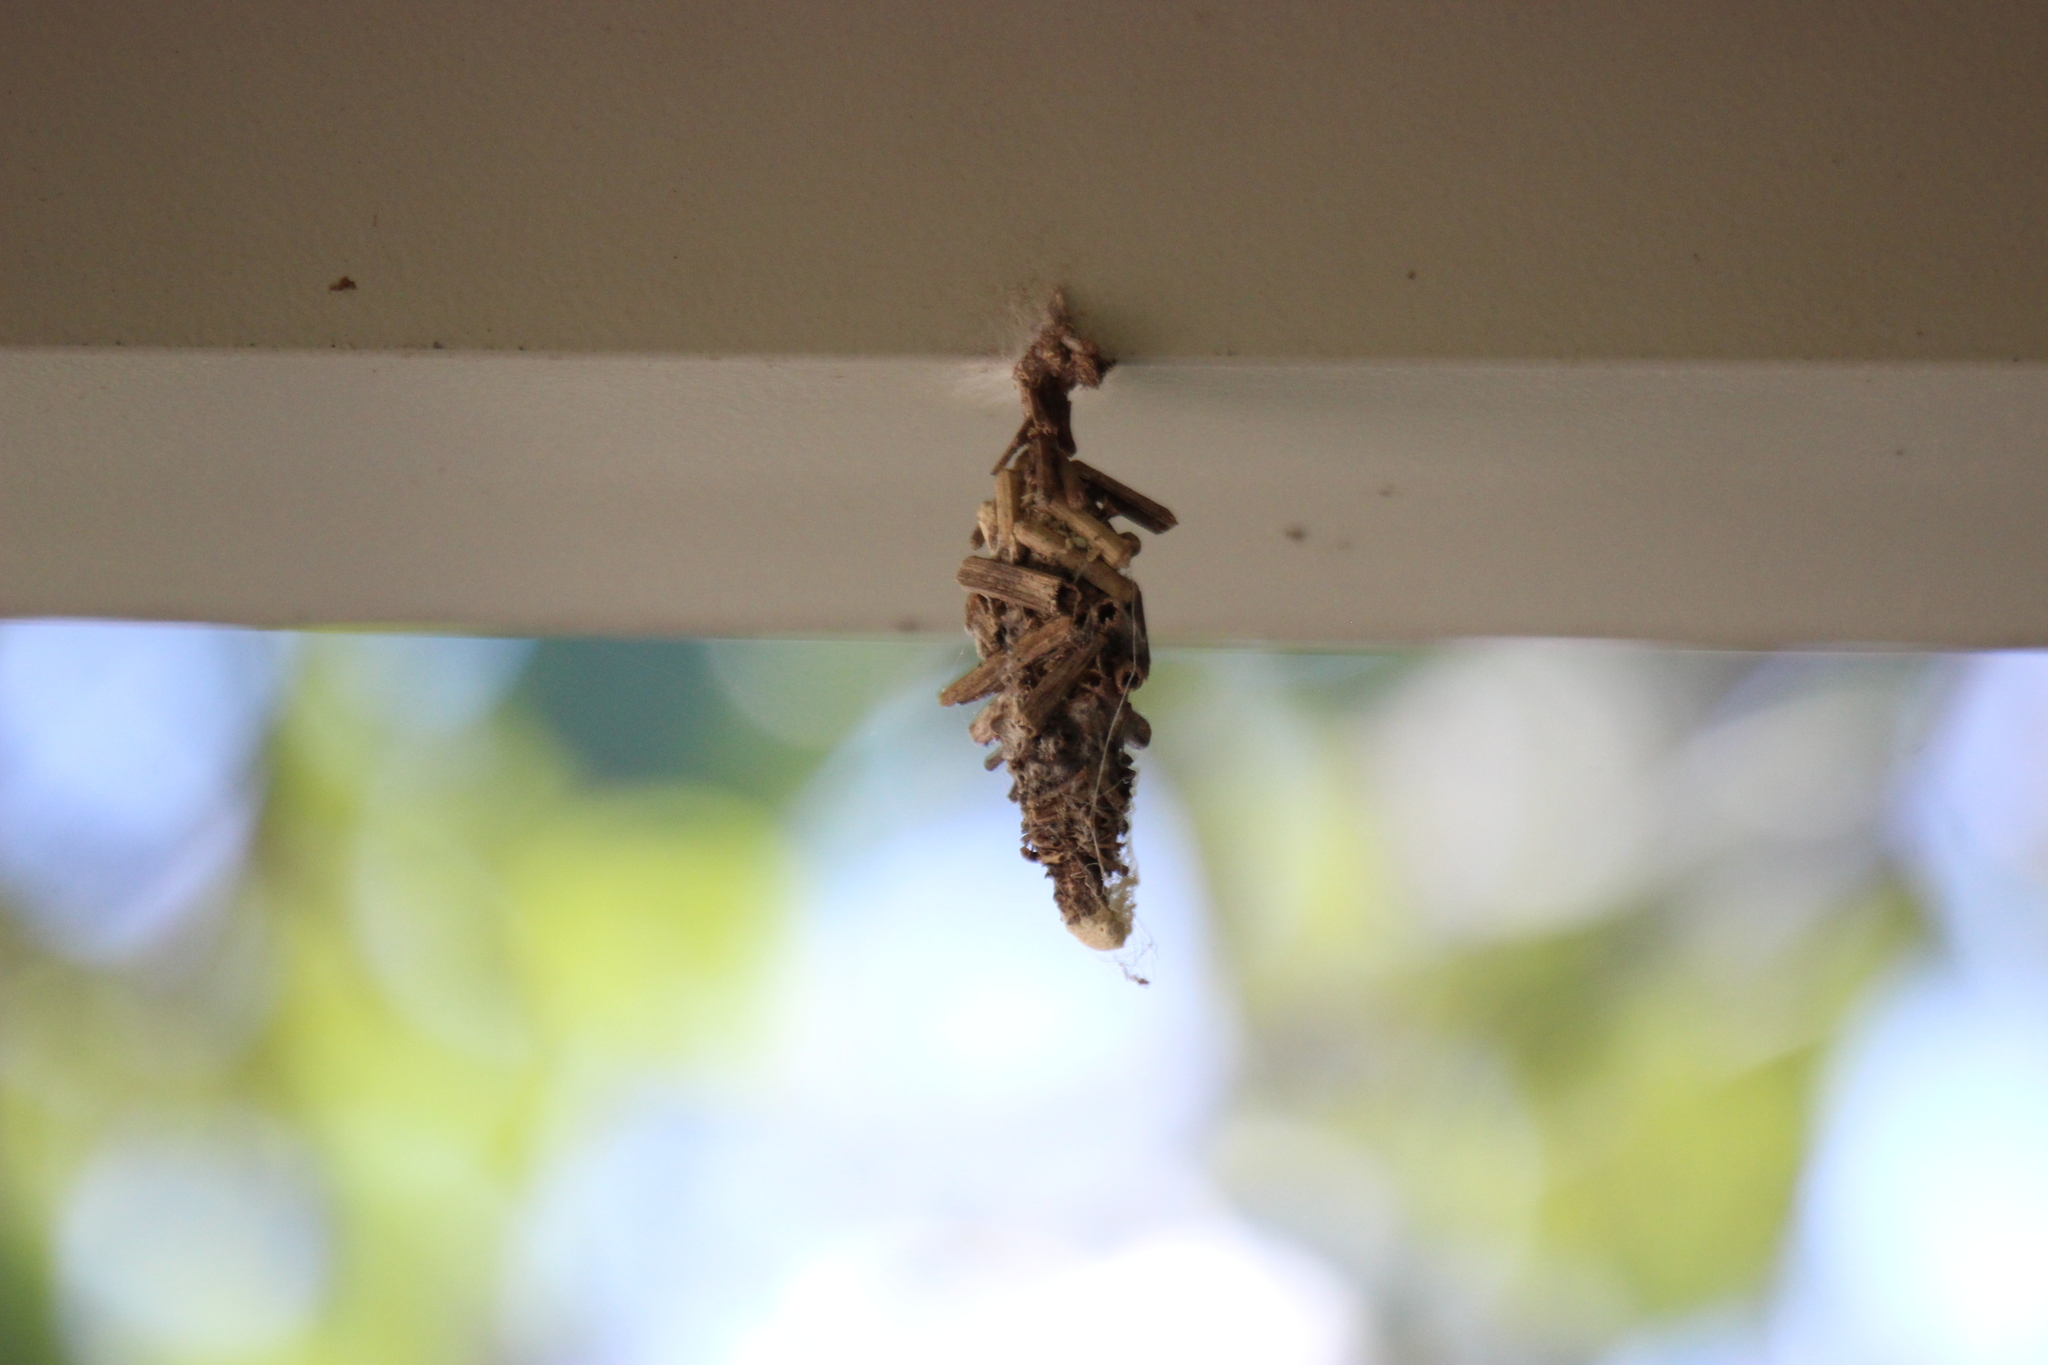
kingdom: Animalia
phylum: Arthropoda
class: Insecta
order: Lepidoptera
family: Psychidae
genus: Oiketicus
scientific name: Oiketicus
